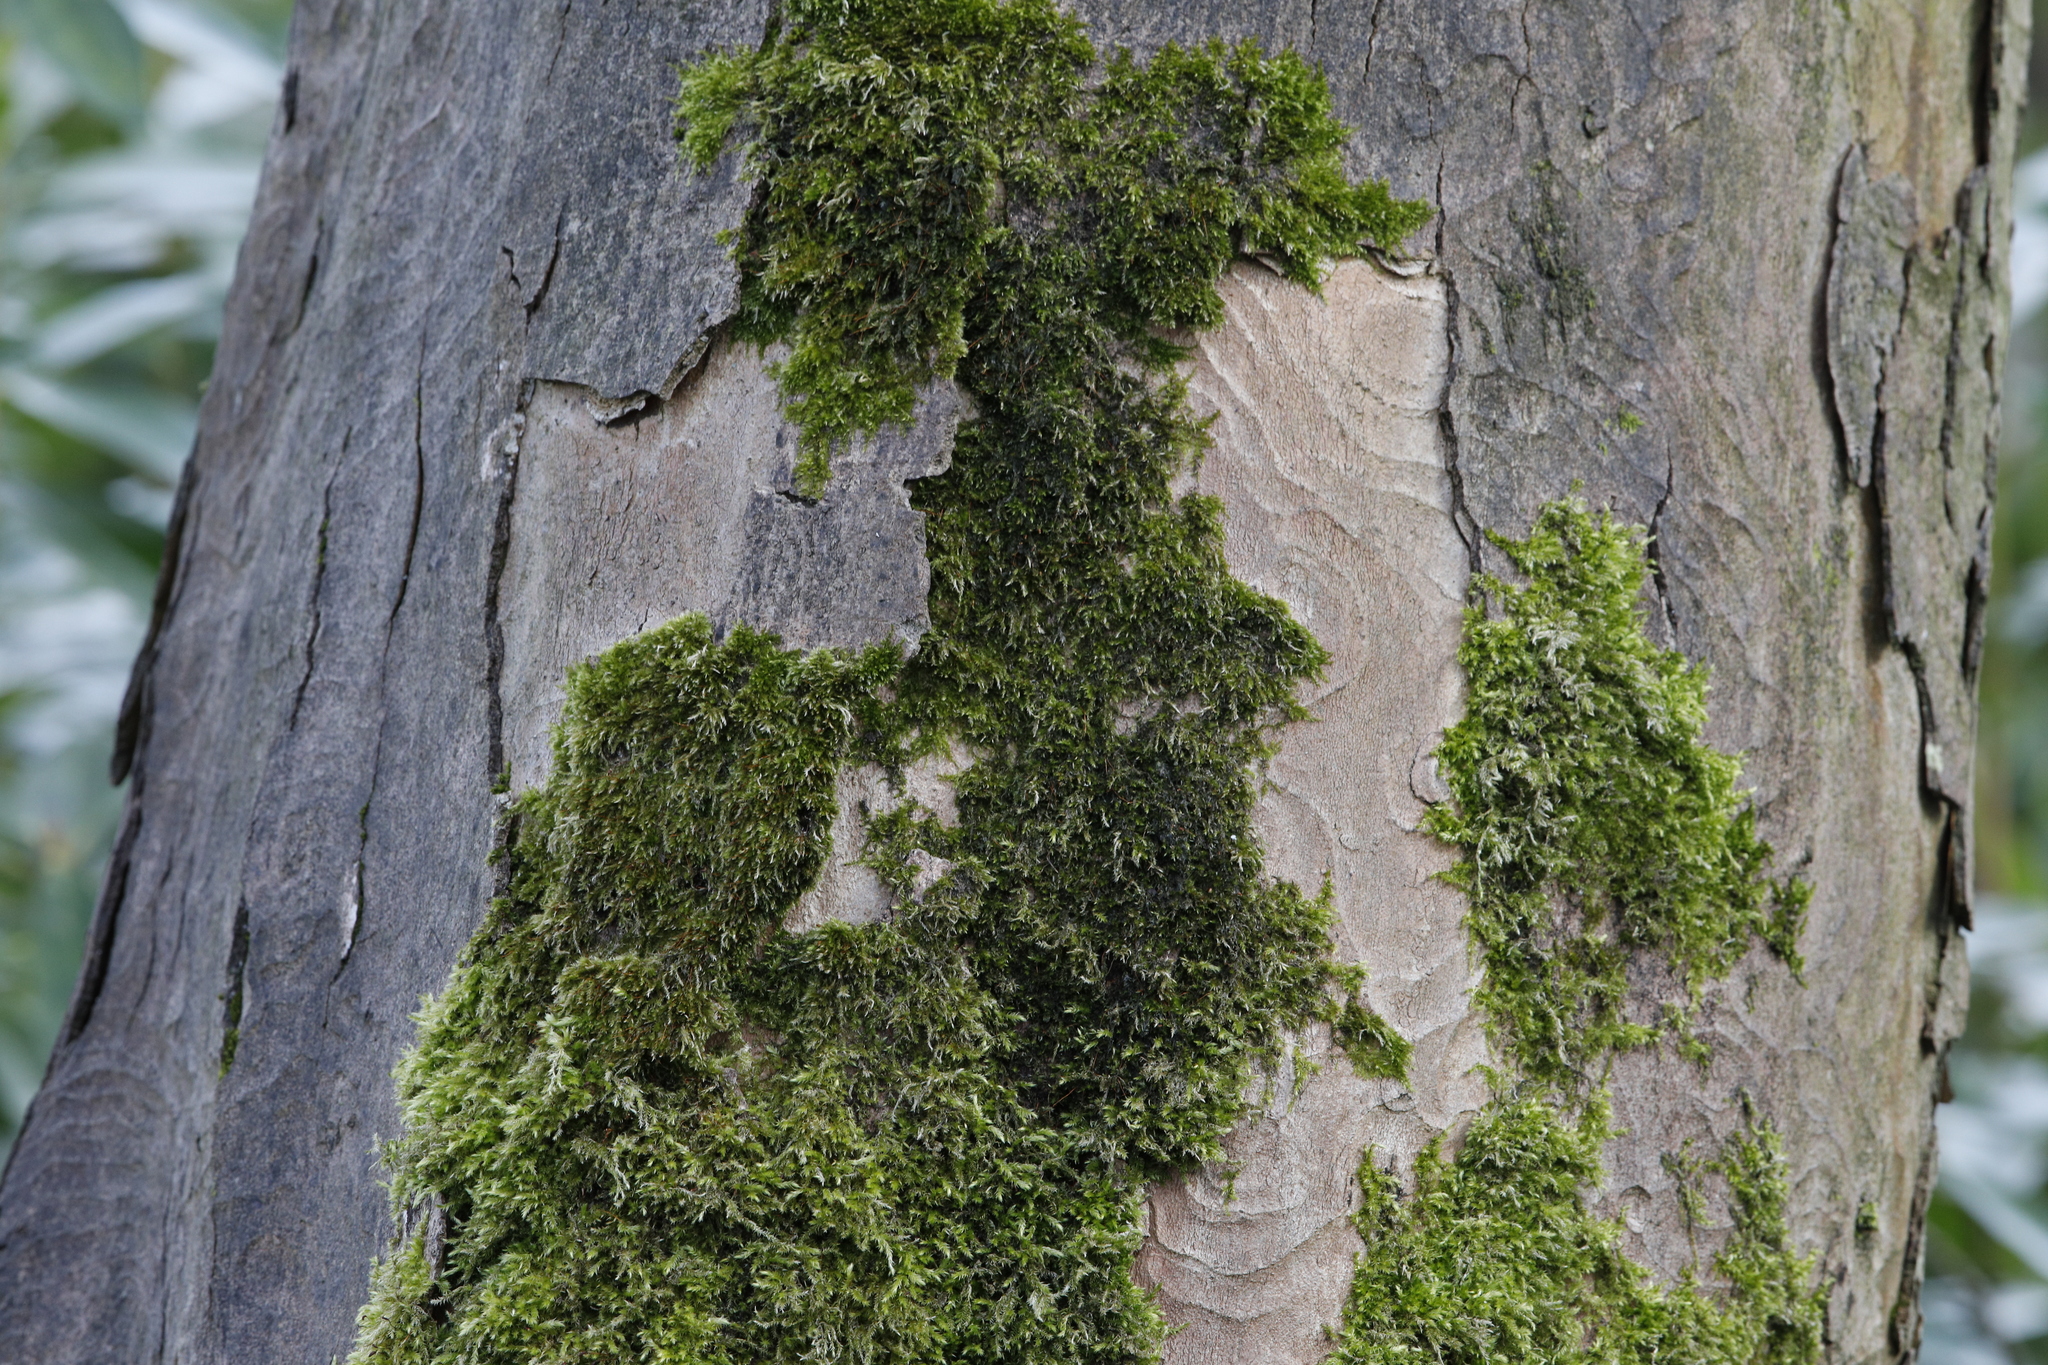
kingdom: Plantae
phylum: Bryophyta
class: Bryopsida
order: Hypnales
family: Brachytheciaceae
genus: Brachythecium
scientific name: Brachythecium rutabulum
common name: Rough-stalked feather-moss
